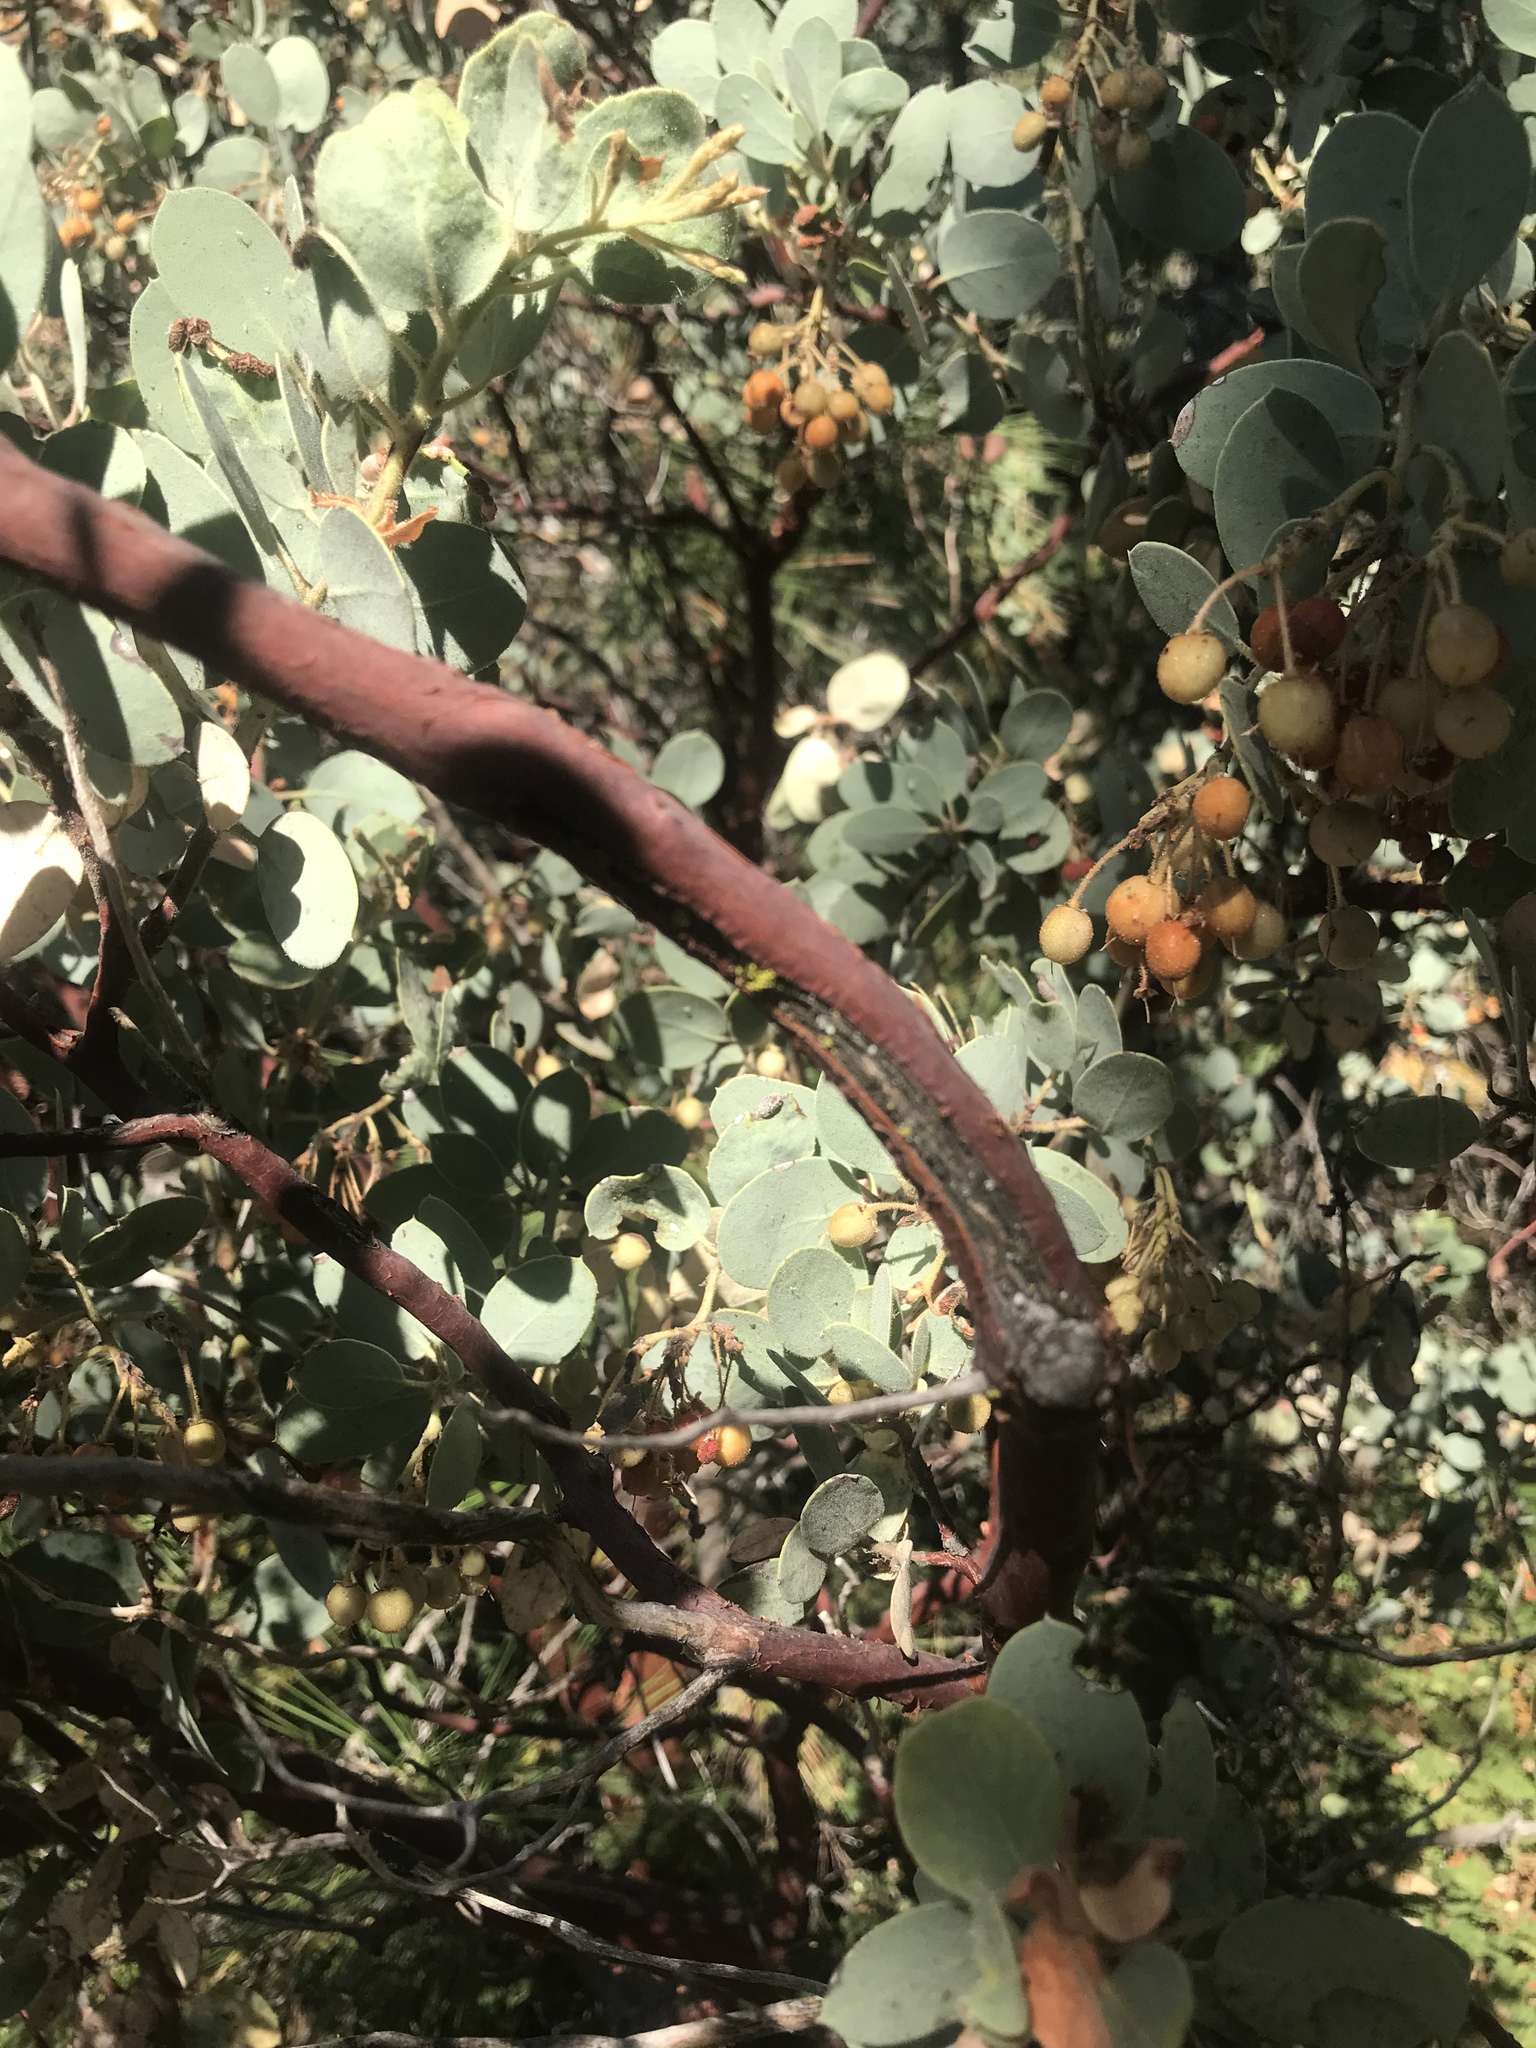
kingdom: Plantae
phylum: Tracheophyta
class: Magnoliopsida
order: Ericales
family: Ericaceae
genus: Arctostaphylos
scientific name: Arctostaphylos viscida
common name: White-leaf manzanita
